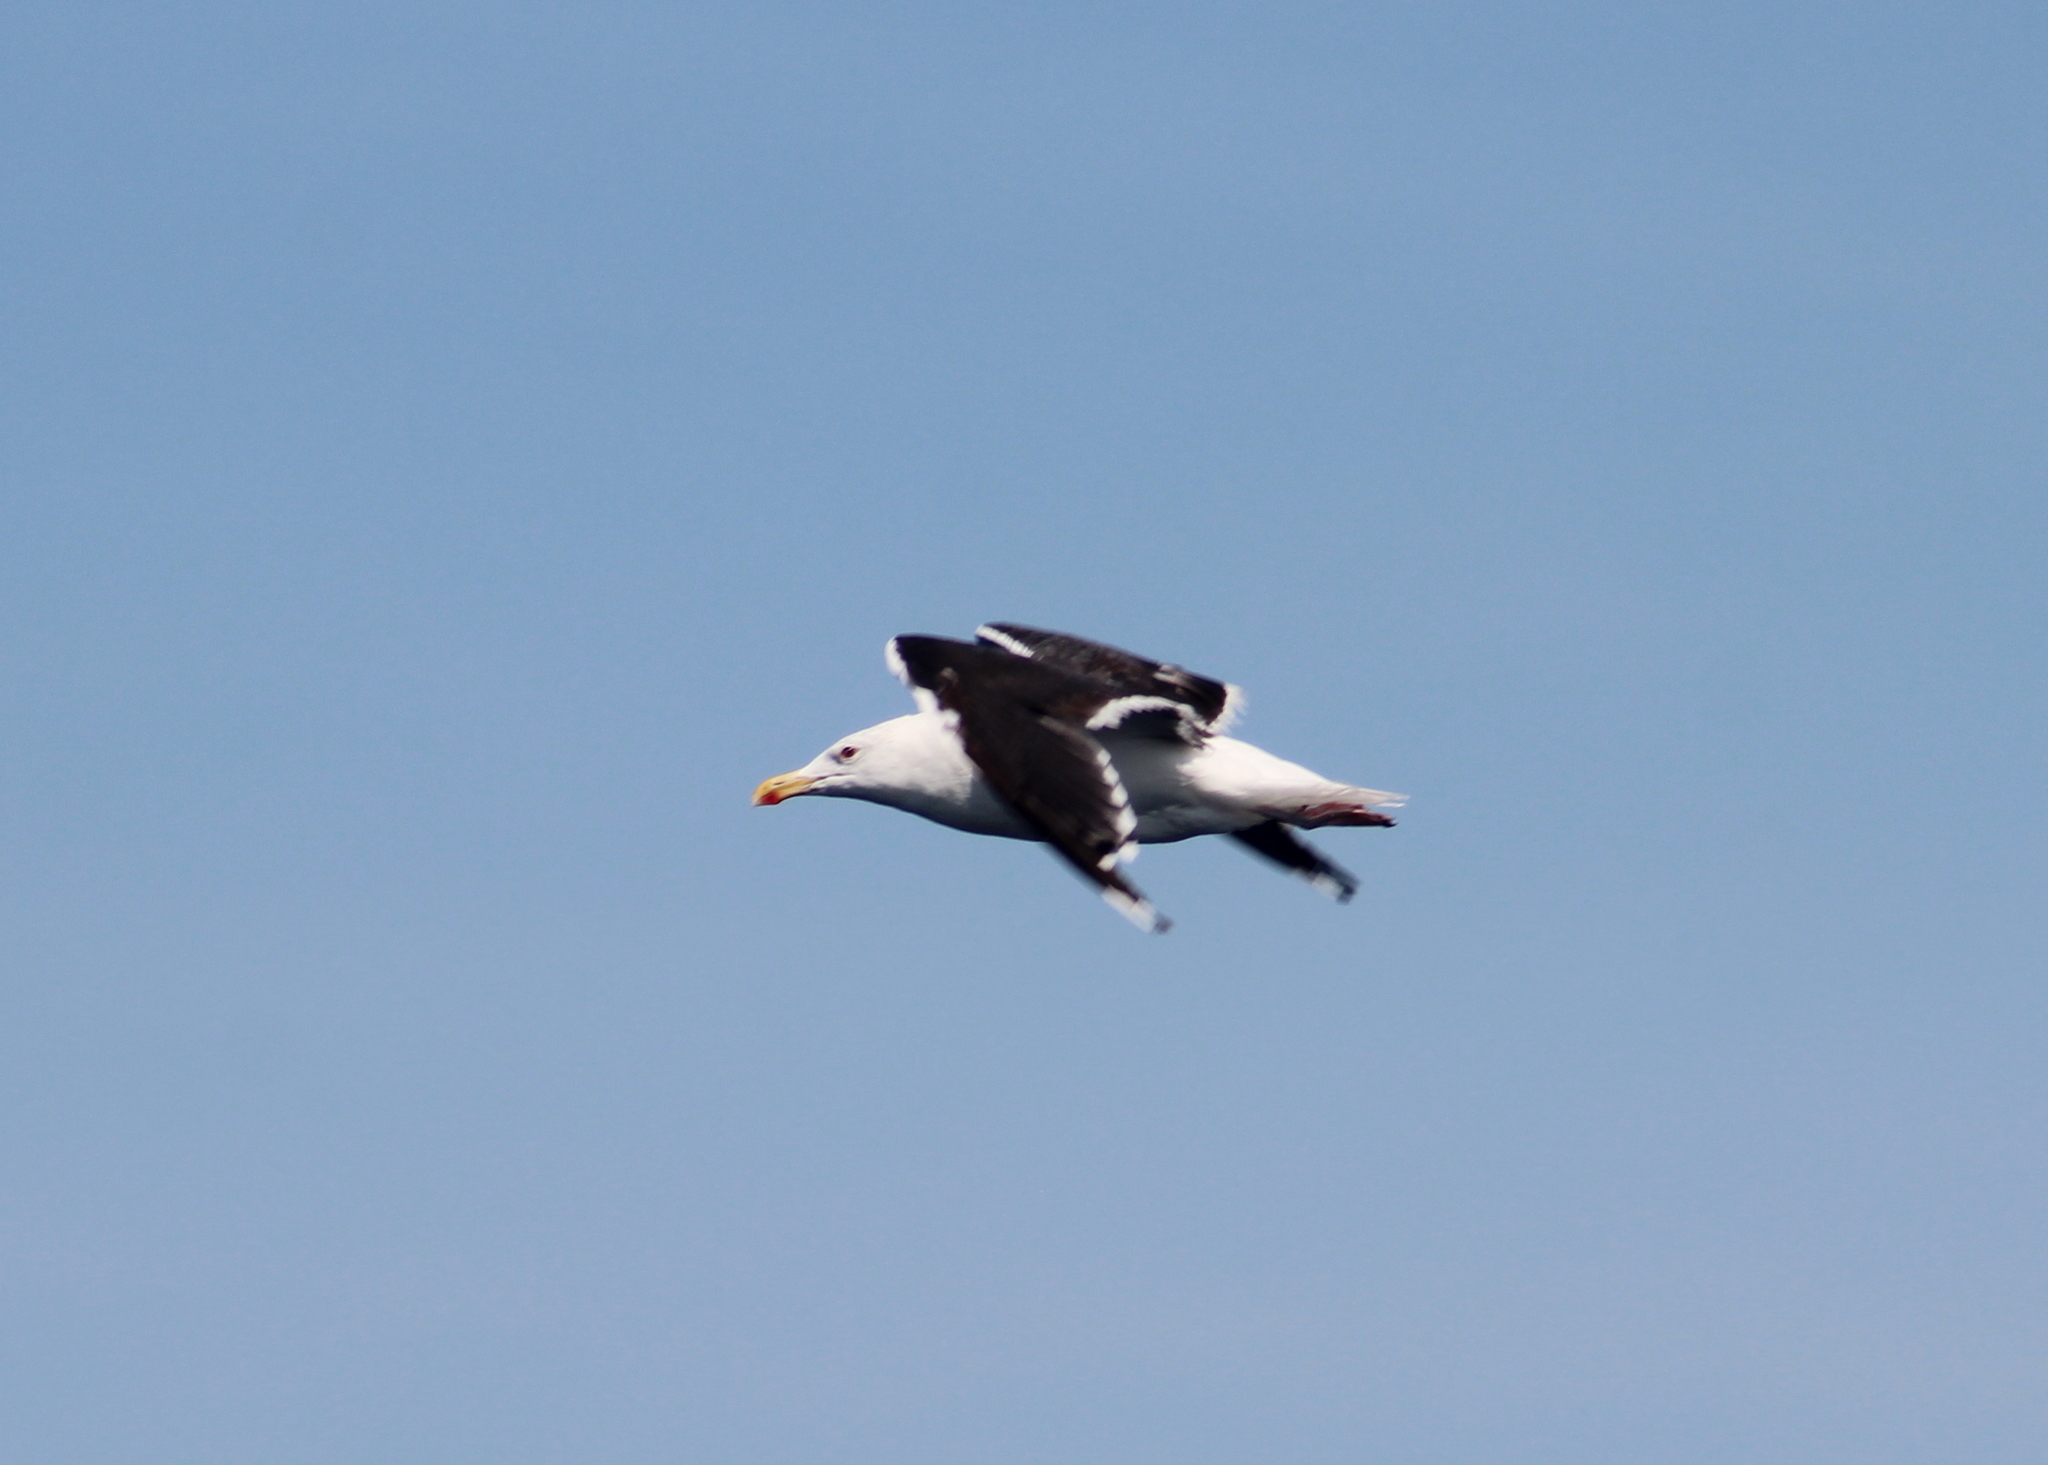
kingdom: Animalia
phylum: Chordata
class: Aves
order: Charadriiformes
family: Laridae
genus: Larus
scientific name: Larus marinus
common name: Great black-backed gull
